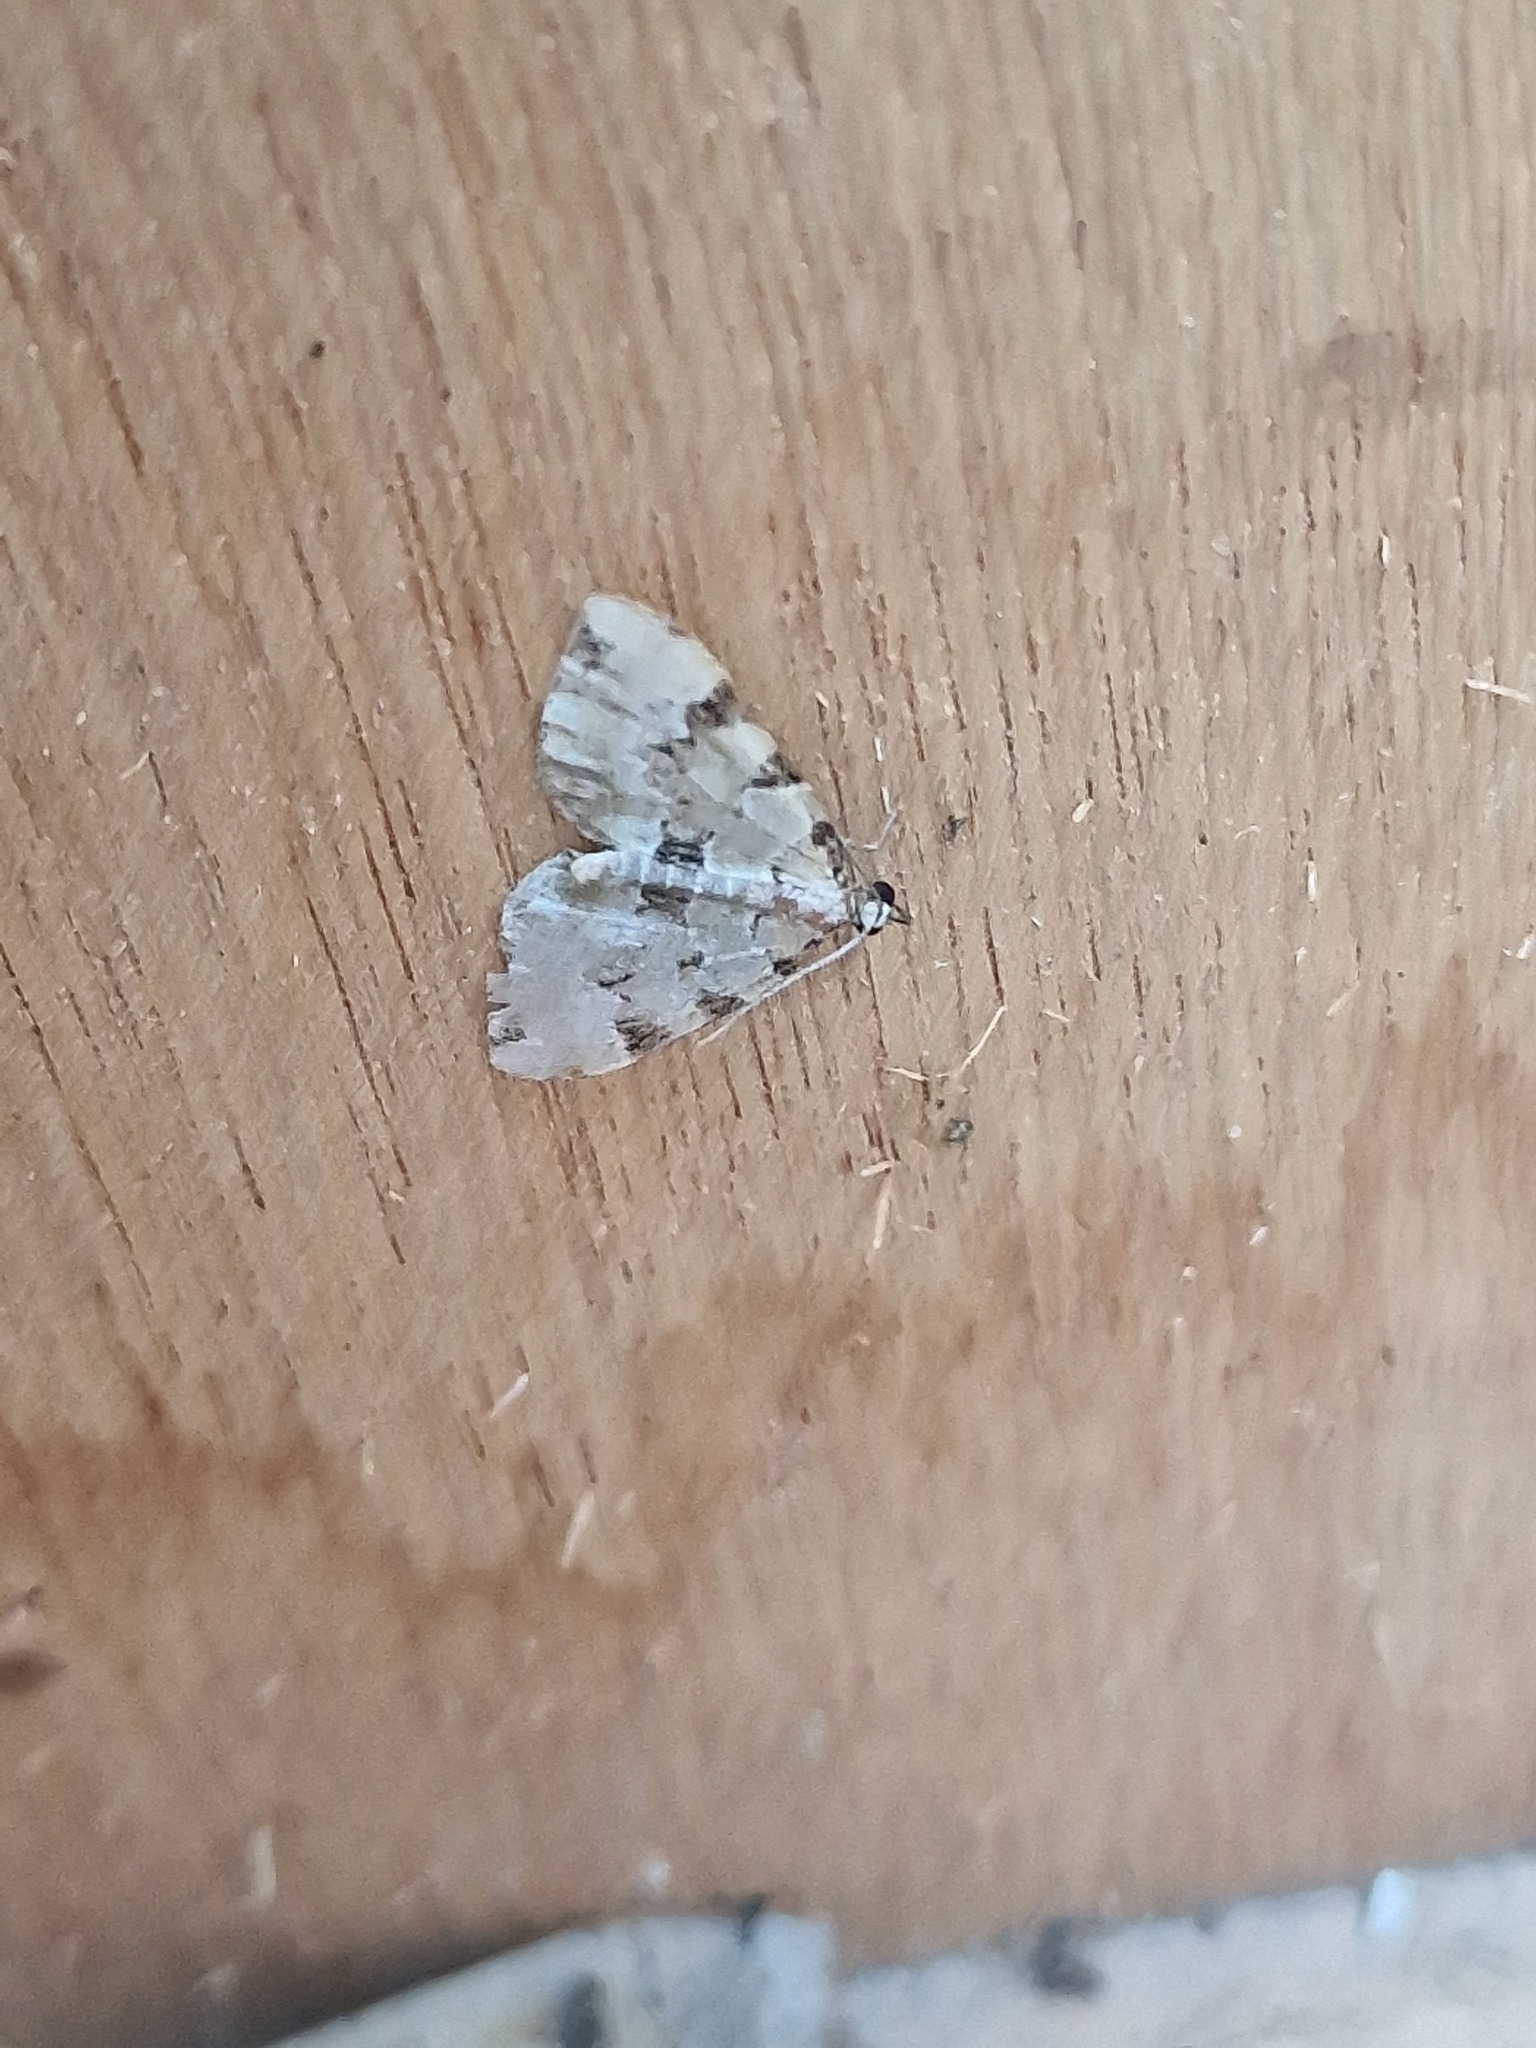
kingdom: Animalia
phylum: Arthropoda
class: Insecta
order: Lepidoptera
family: Geometridae
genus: Colostygia
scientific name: Colostygia pectinataria
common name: Green carpet
